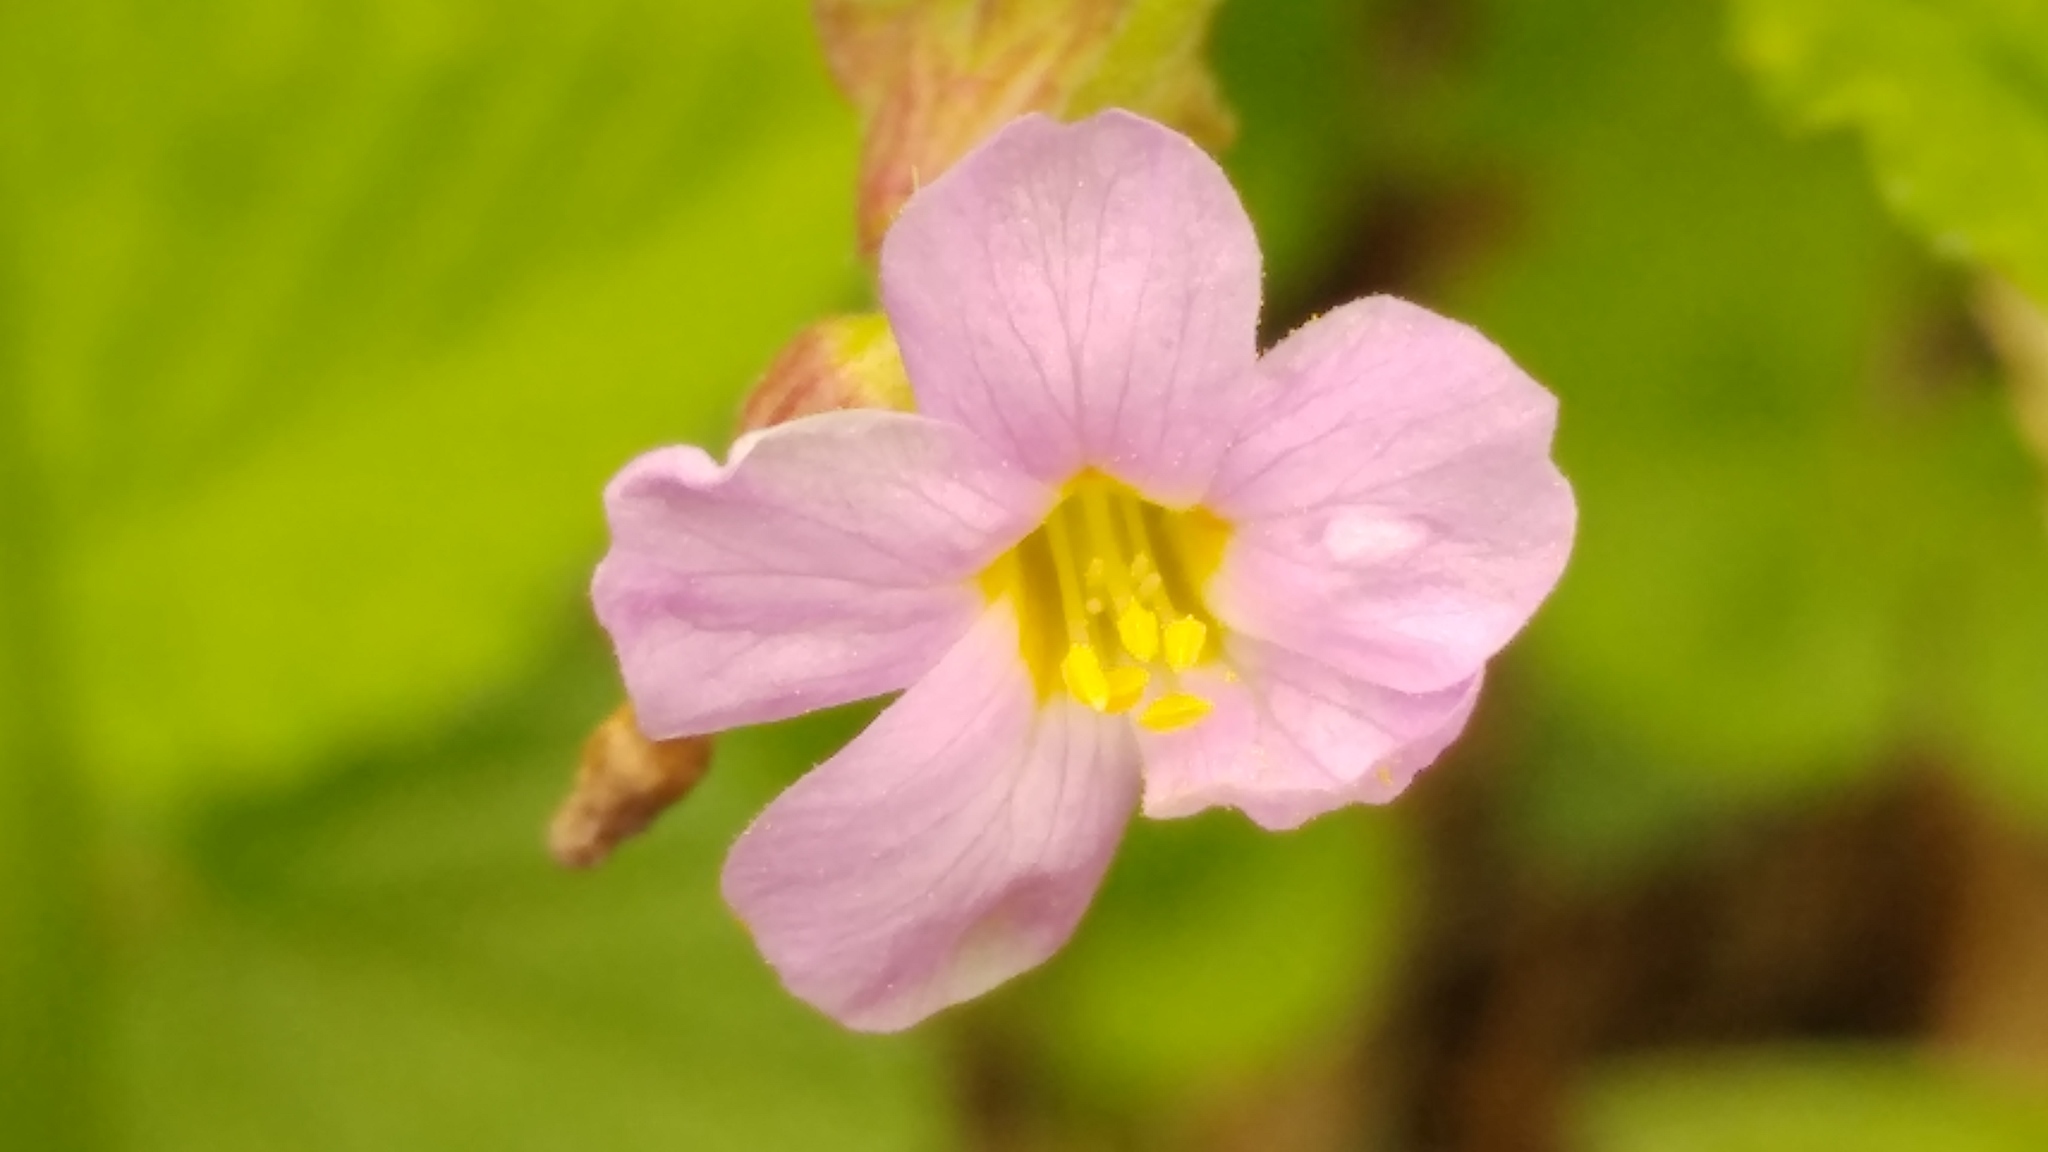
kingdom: Plantae
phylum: Tracheophyta
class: Magnoliopsida
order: Malvales
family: Malvaceae
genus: Melochia
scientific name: Melochia pyramidata
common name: Pyramidflower
